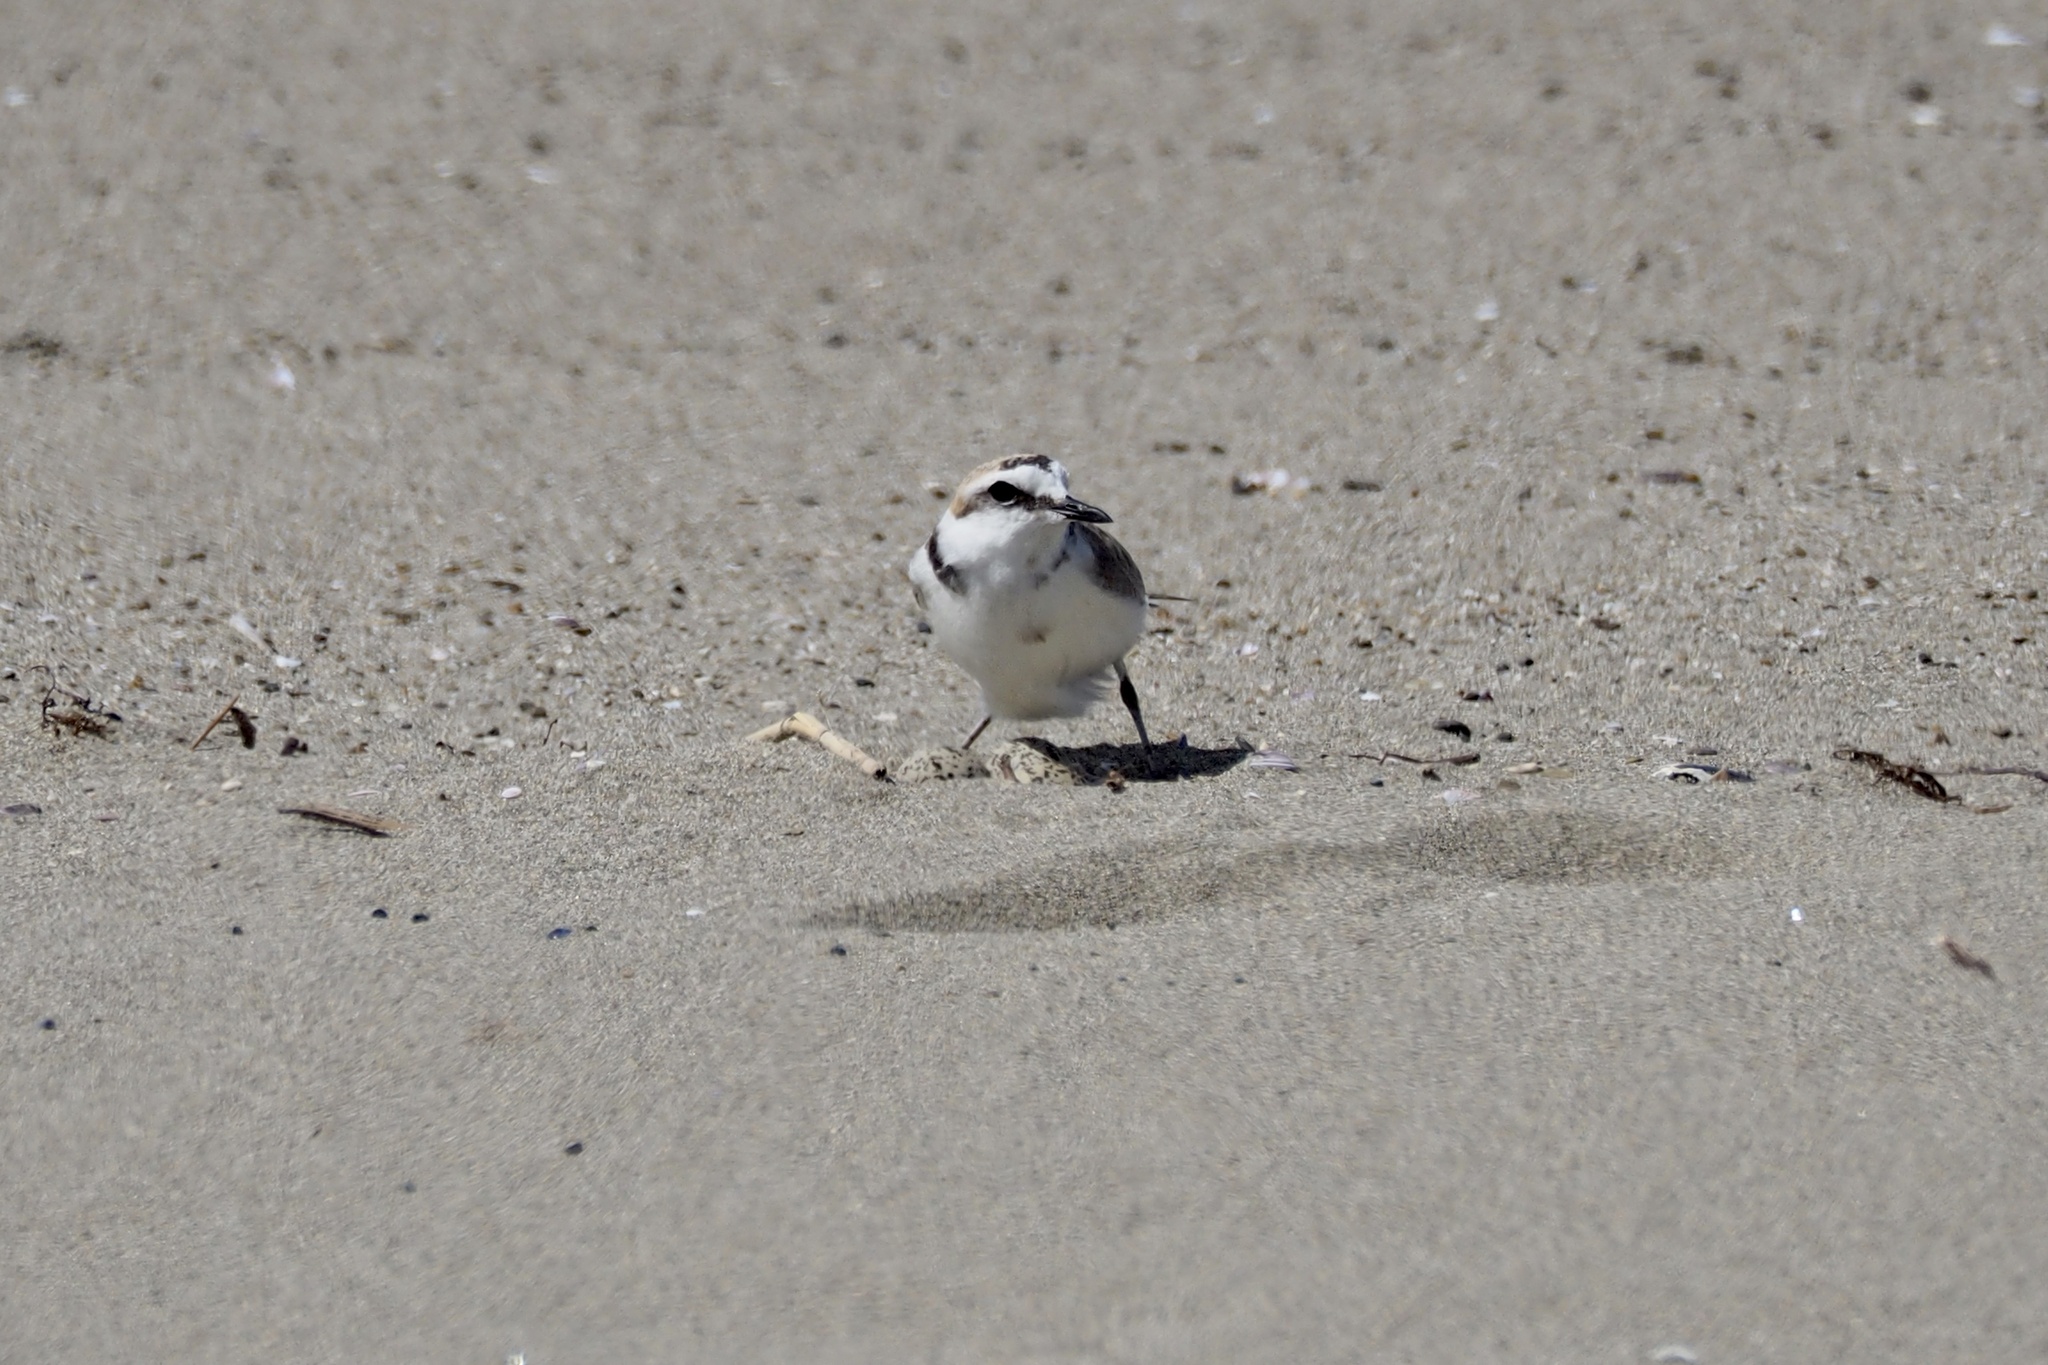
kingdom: Animalia
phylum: Chordata
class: Aves
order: Charadriiformes
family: Charadriidae
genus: Charadrius
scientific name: Charadrius alexandrinus
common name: Kentish plover
